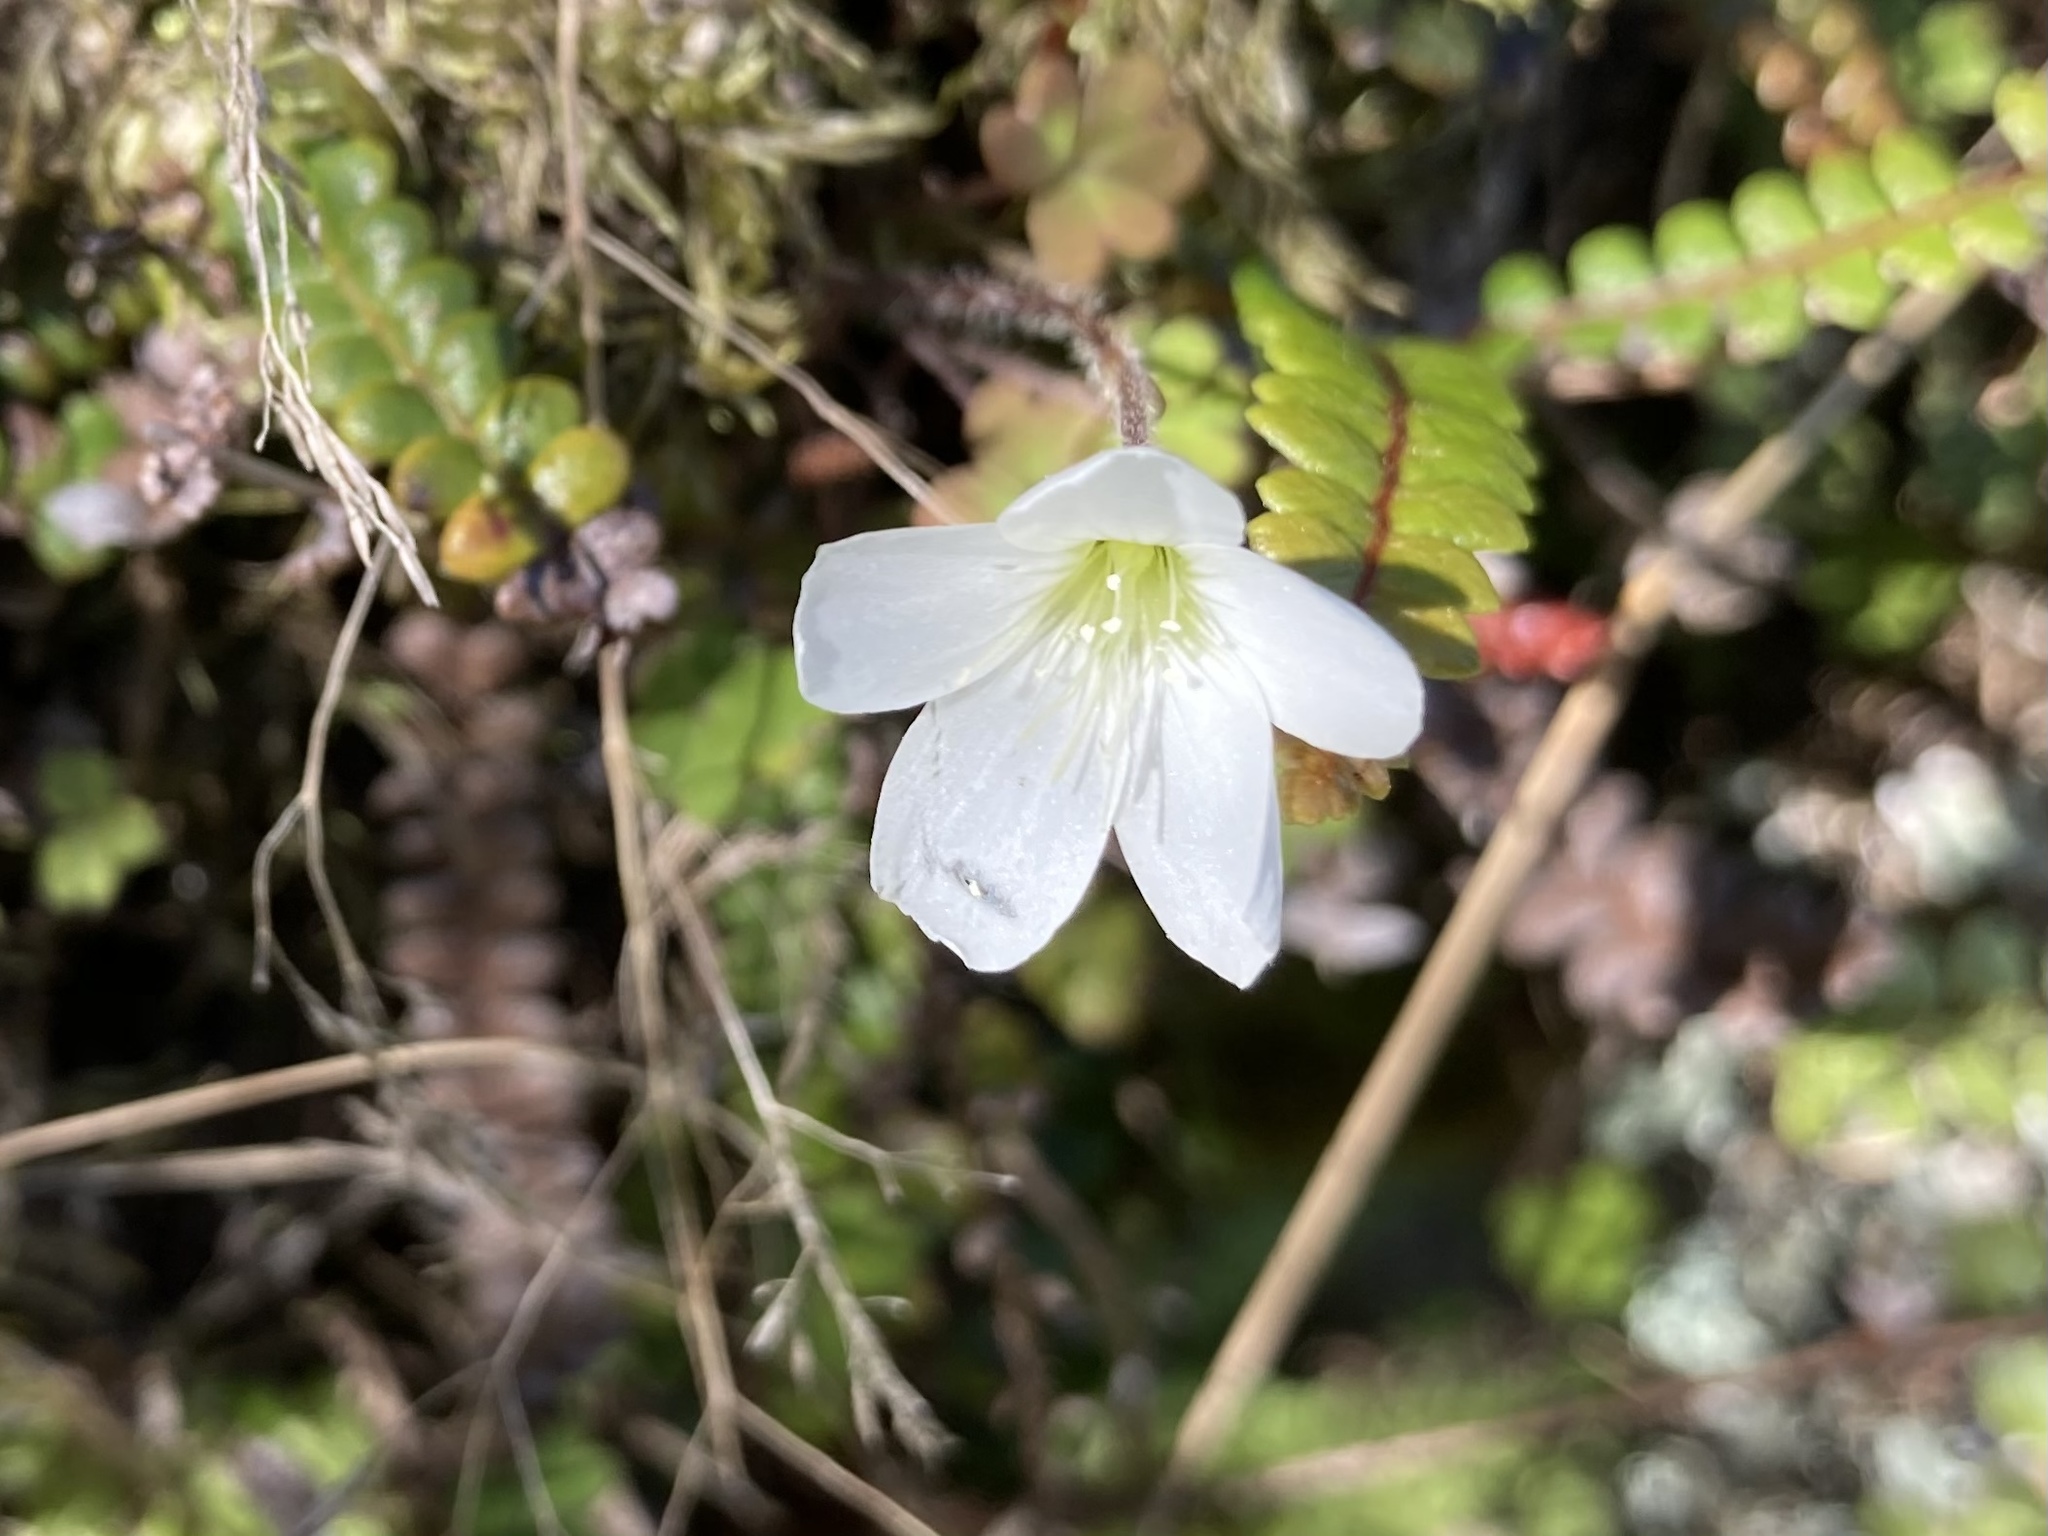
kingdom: Plantae
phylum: Tracheophyta
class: Magnoliopsida
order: Oxalidales
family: Oxalidaceae
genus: Oxalis
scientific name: Oxalis magellanica
